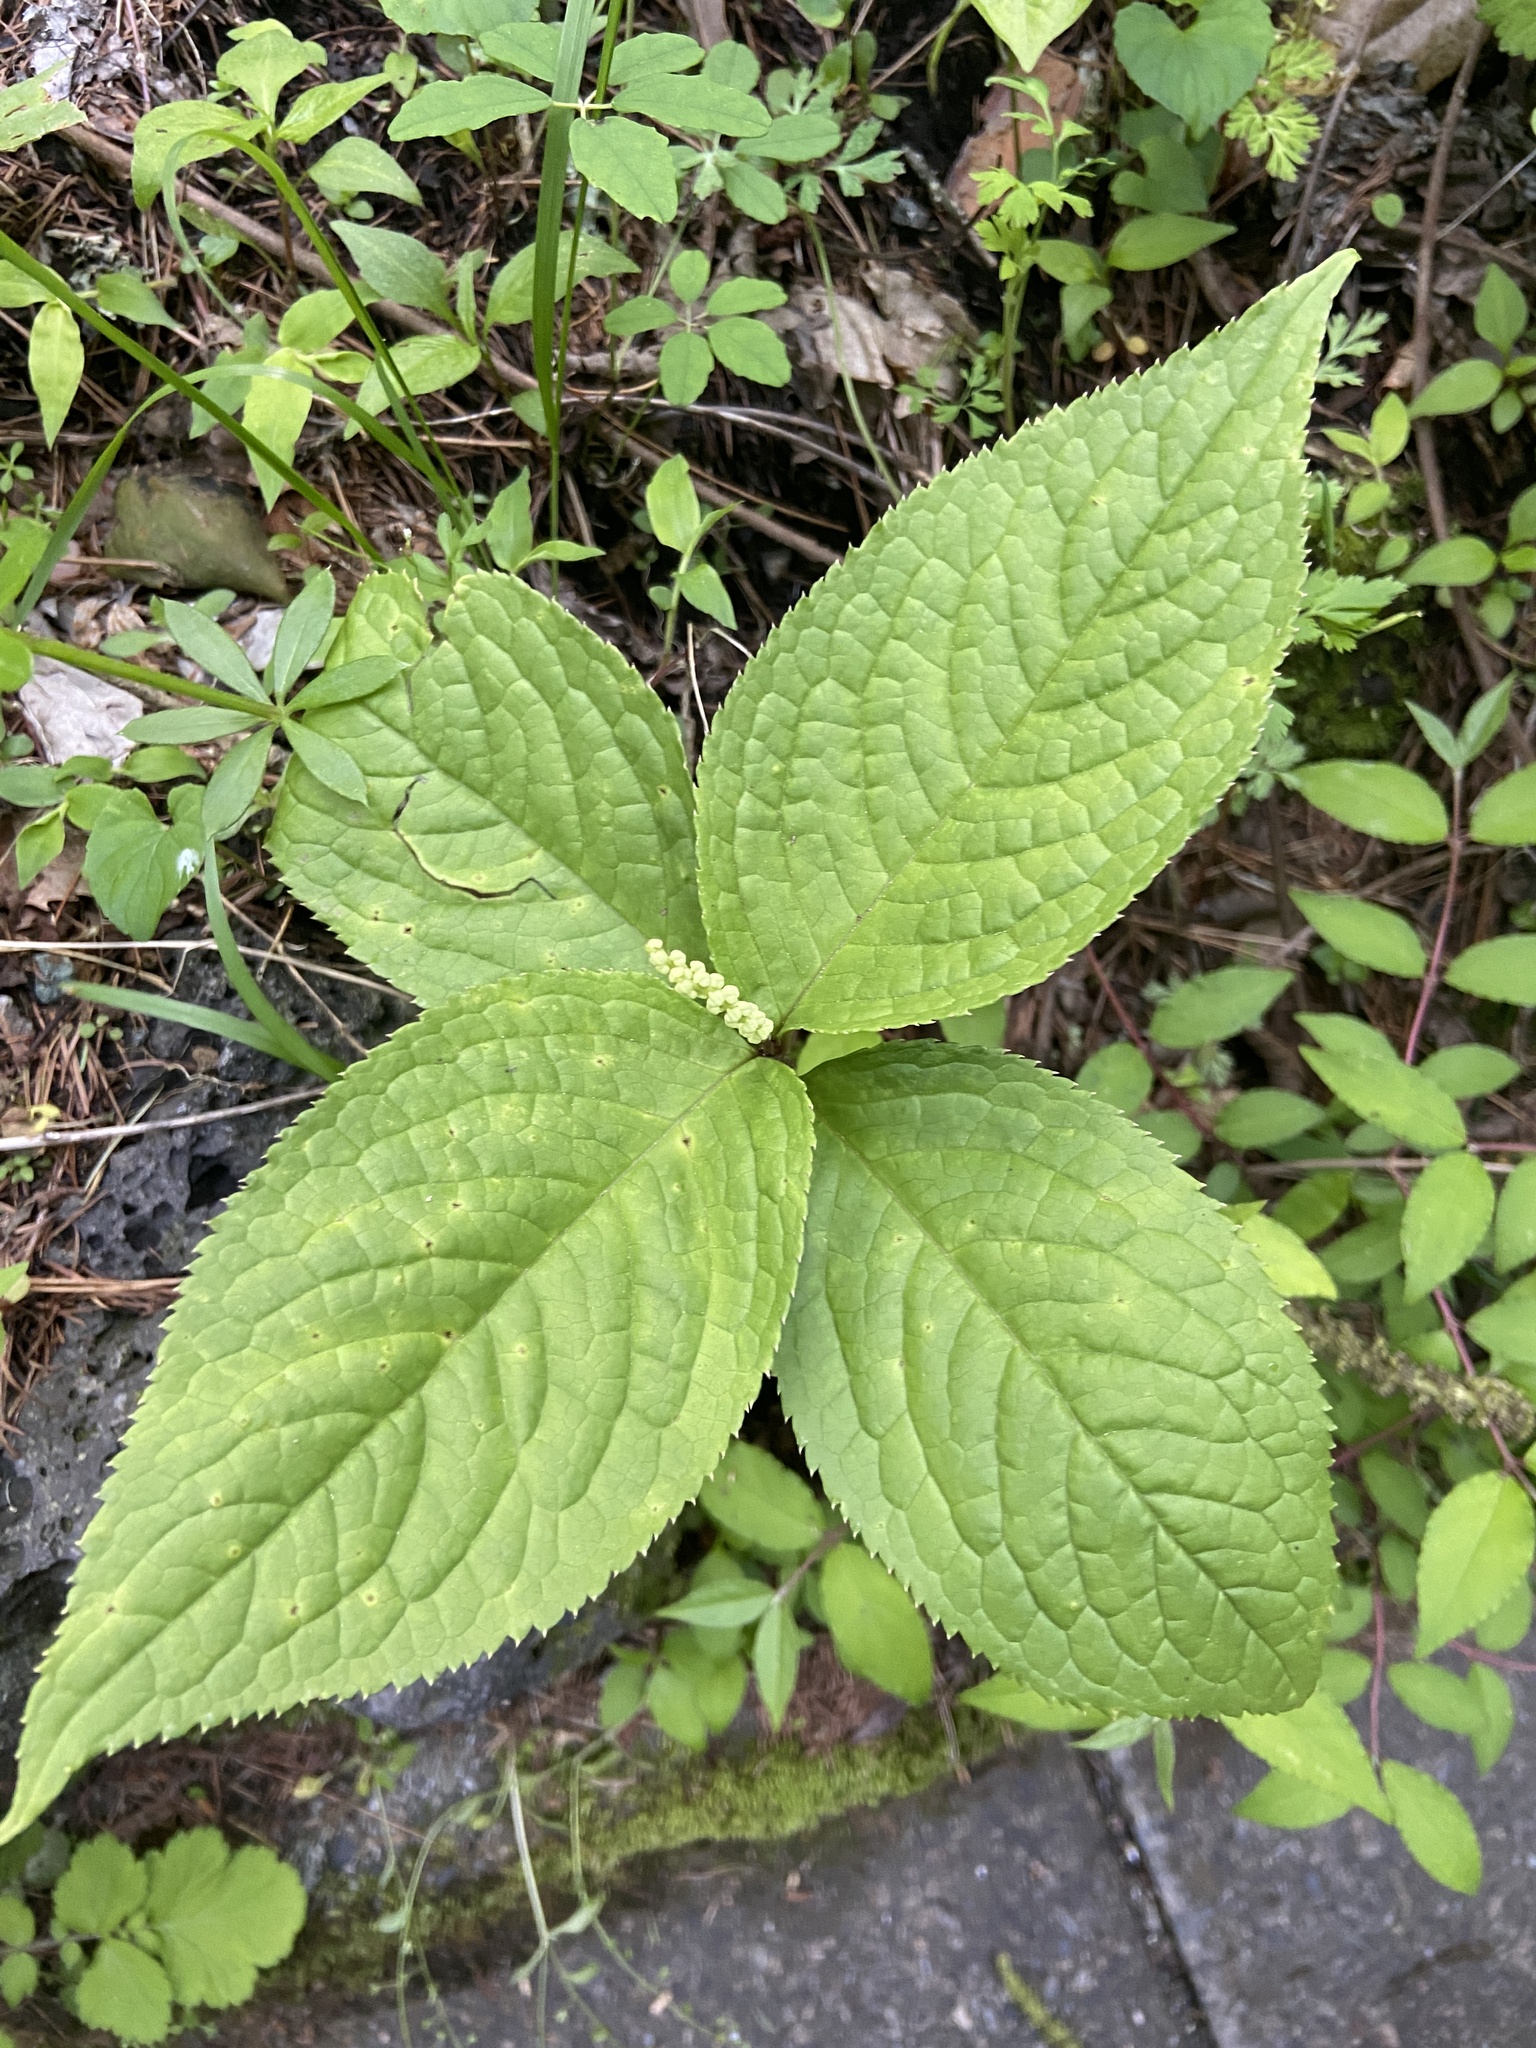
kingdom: Plantae
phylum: Tracheophyta
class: Magnoliopsida
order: Chloranthales
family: Chloranthaceae
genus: Chloranthus
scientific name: Chloranthus serratus
